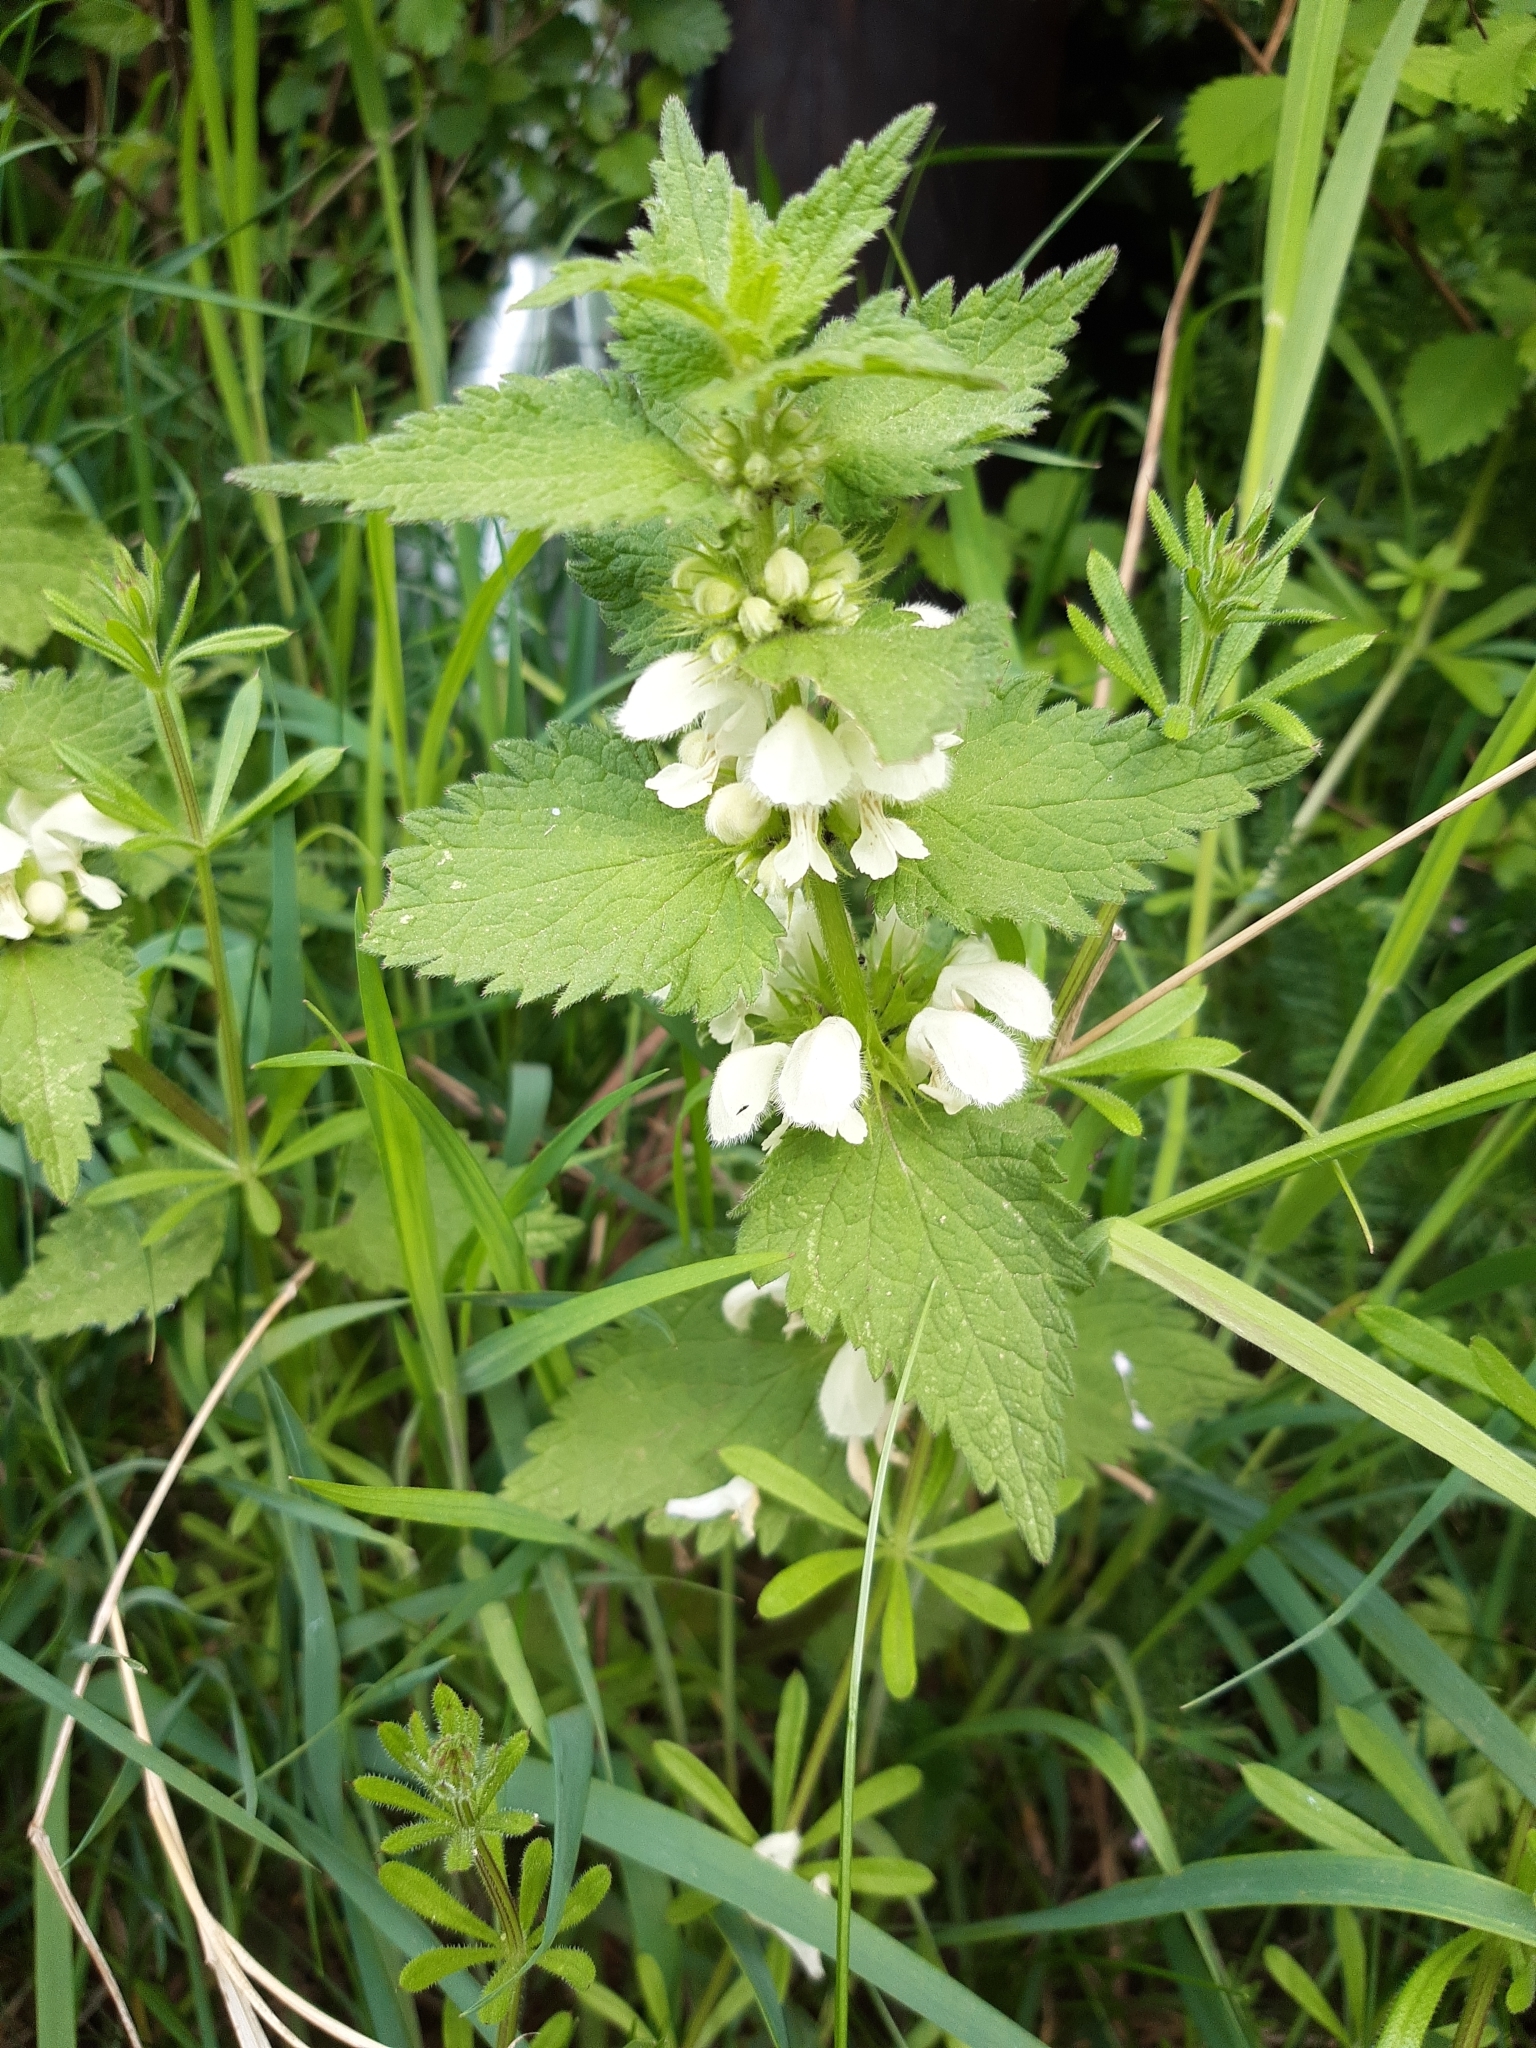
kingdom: Plantae
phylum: Tracheophyta
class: Magnoliopsida
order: Lamiales
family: Lamiaceae
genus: Lamium
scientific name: Lamium album
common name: White dead-nettle
